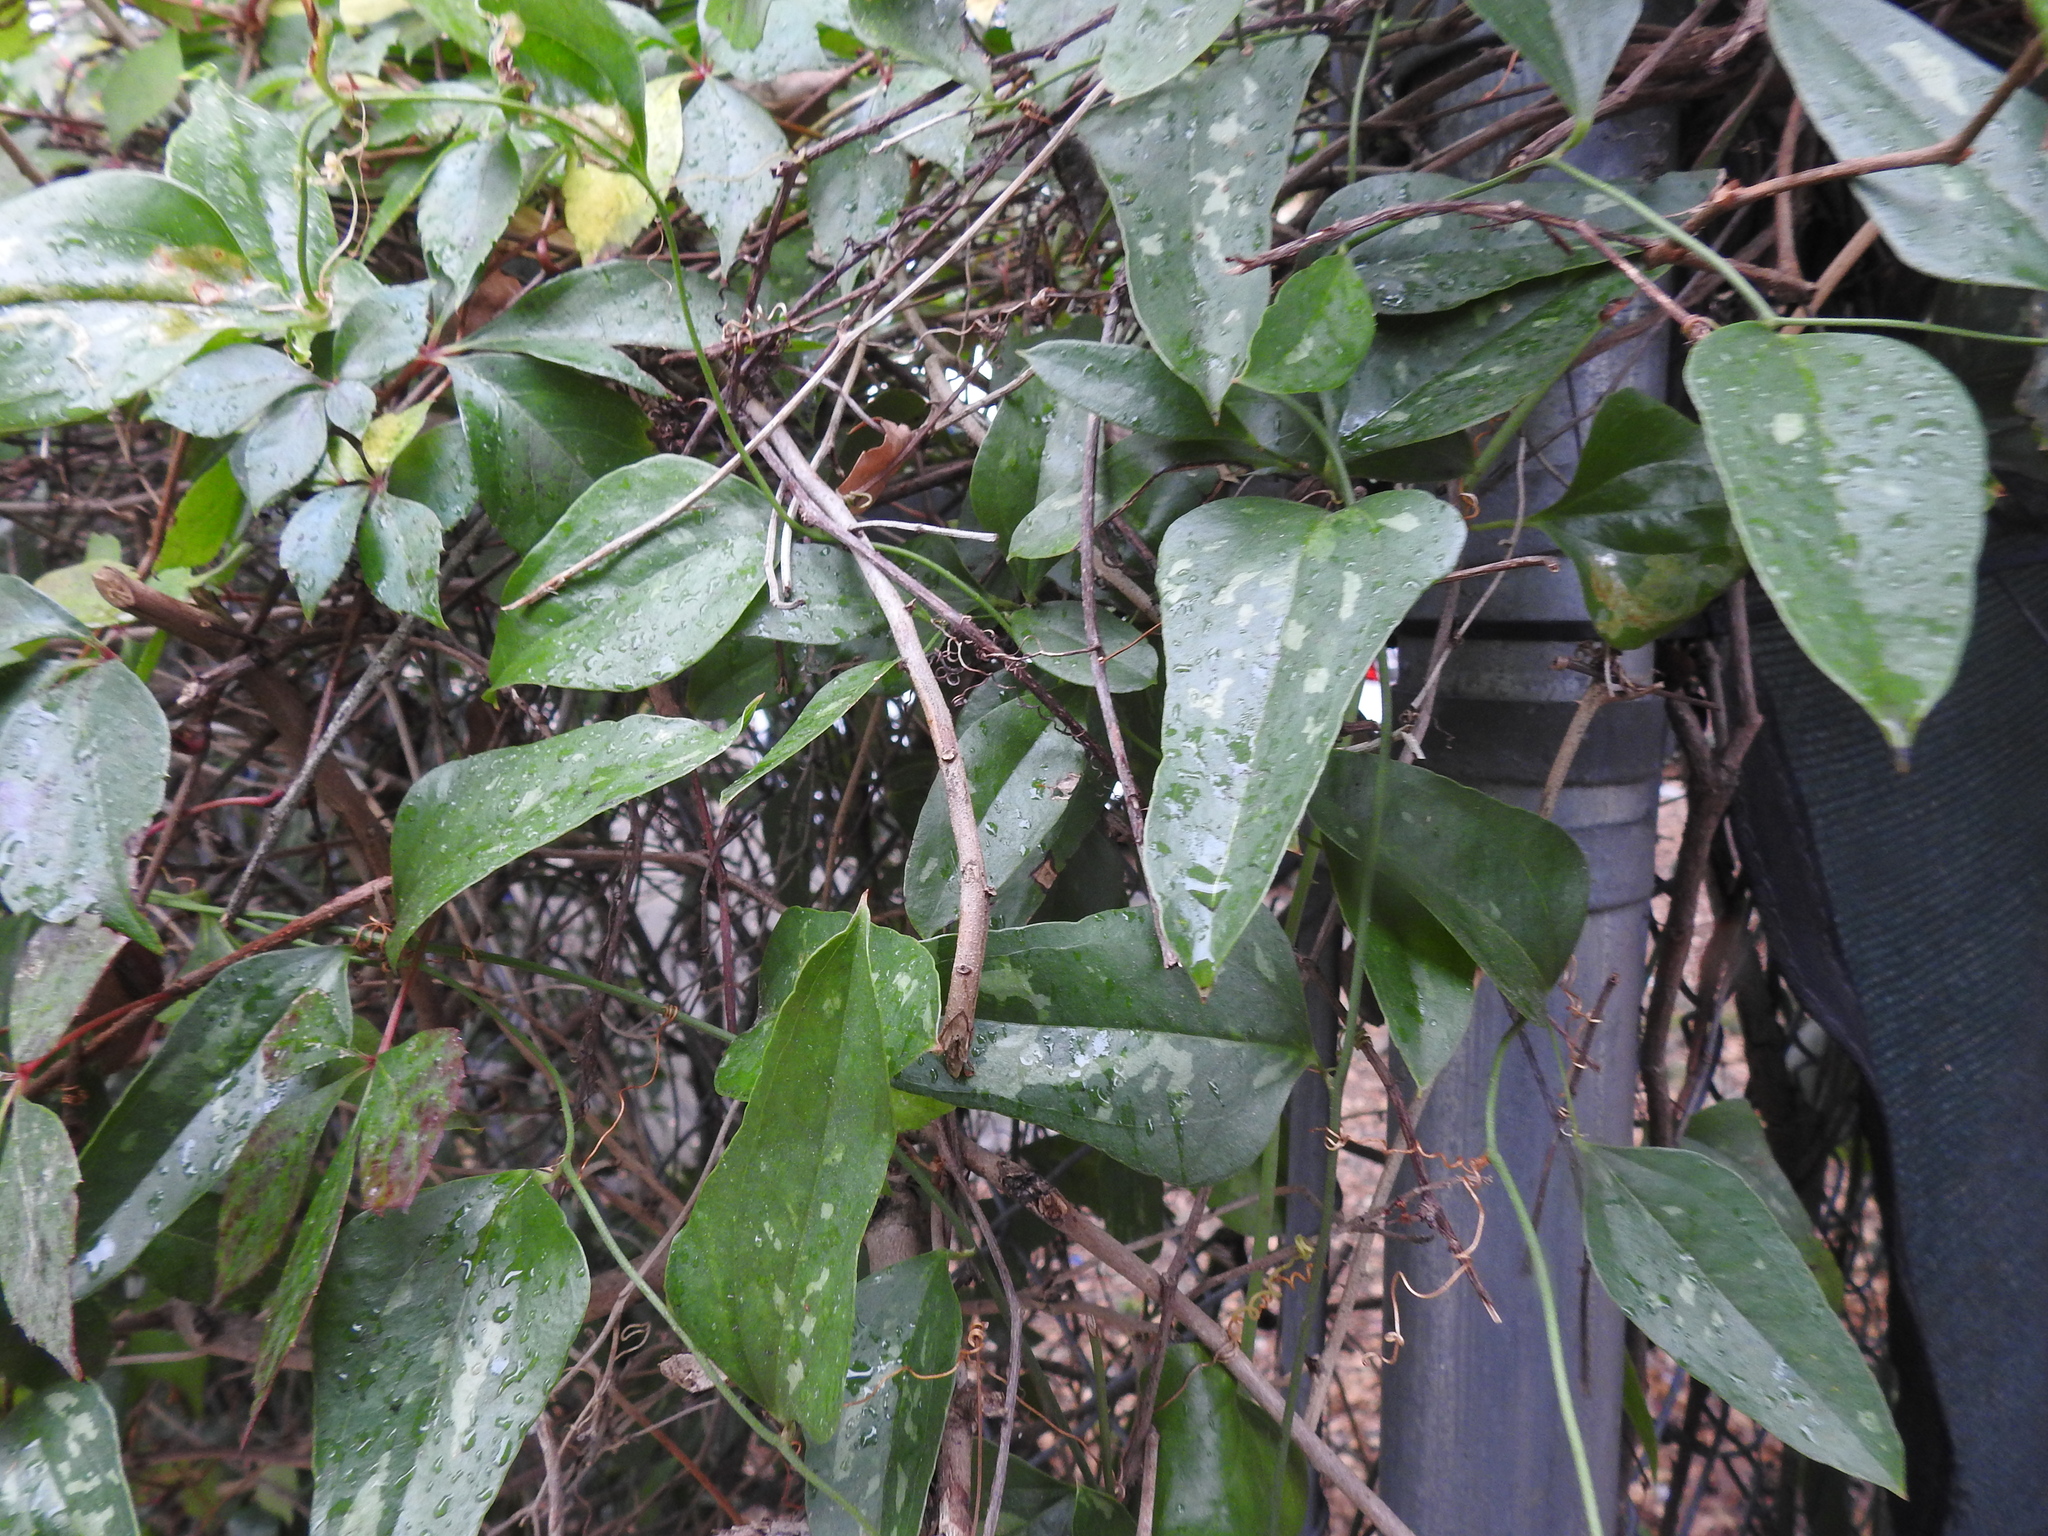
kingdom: Plantae
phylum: Tracheophyta
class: Liliopsida
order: Liliales
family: Smilacaceae
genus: Smilax
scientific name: Smilax auriculata
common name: Wild bamboo
